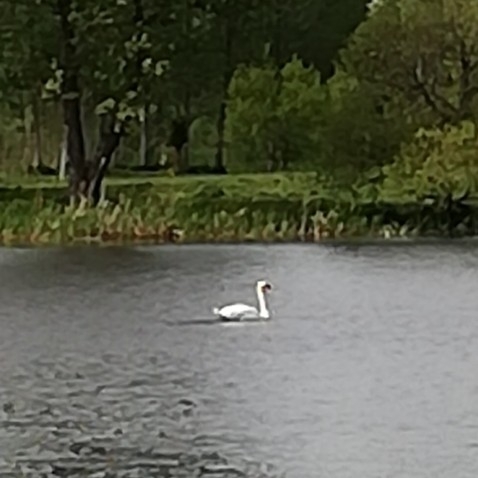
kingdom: Animalia
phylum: Chordata
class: Aves
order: Anseriformes
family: Anatidae
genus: Cygnus
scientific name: Cygnus olor
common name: Mute swan
